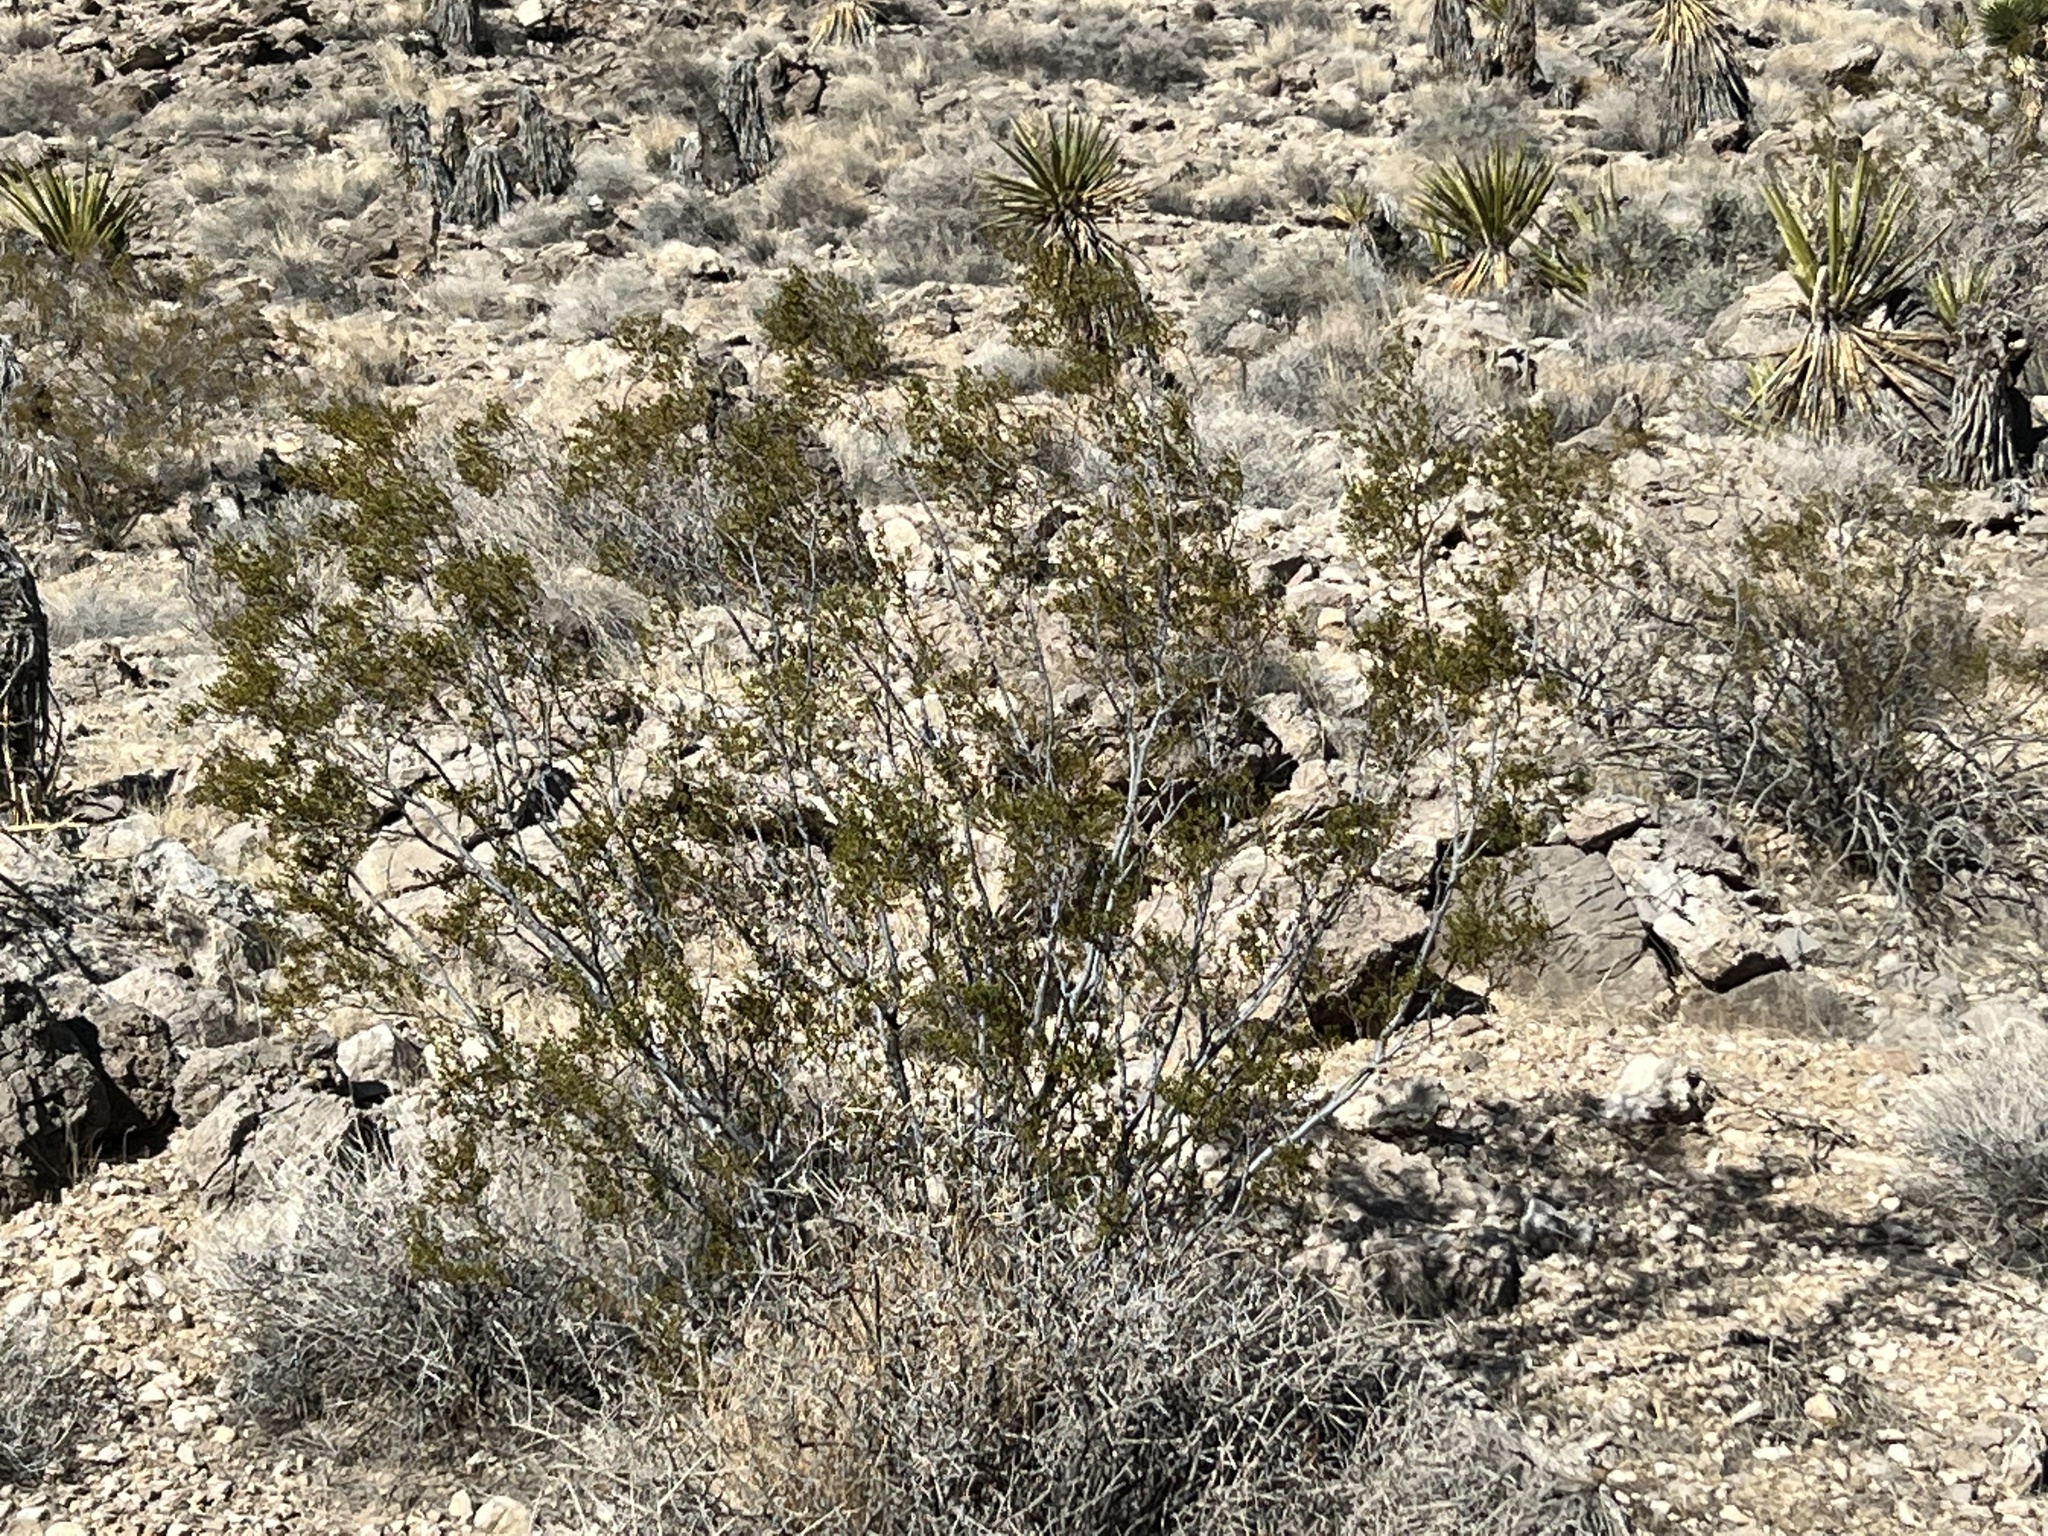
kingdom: Plantae
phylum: Tracheophyta
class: Magnoliopsida
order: Zygophyllales
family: Zygophyllaceae
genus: Larrea
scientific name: Larrea tridentata
